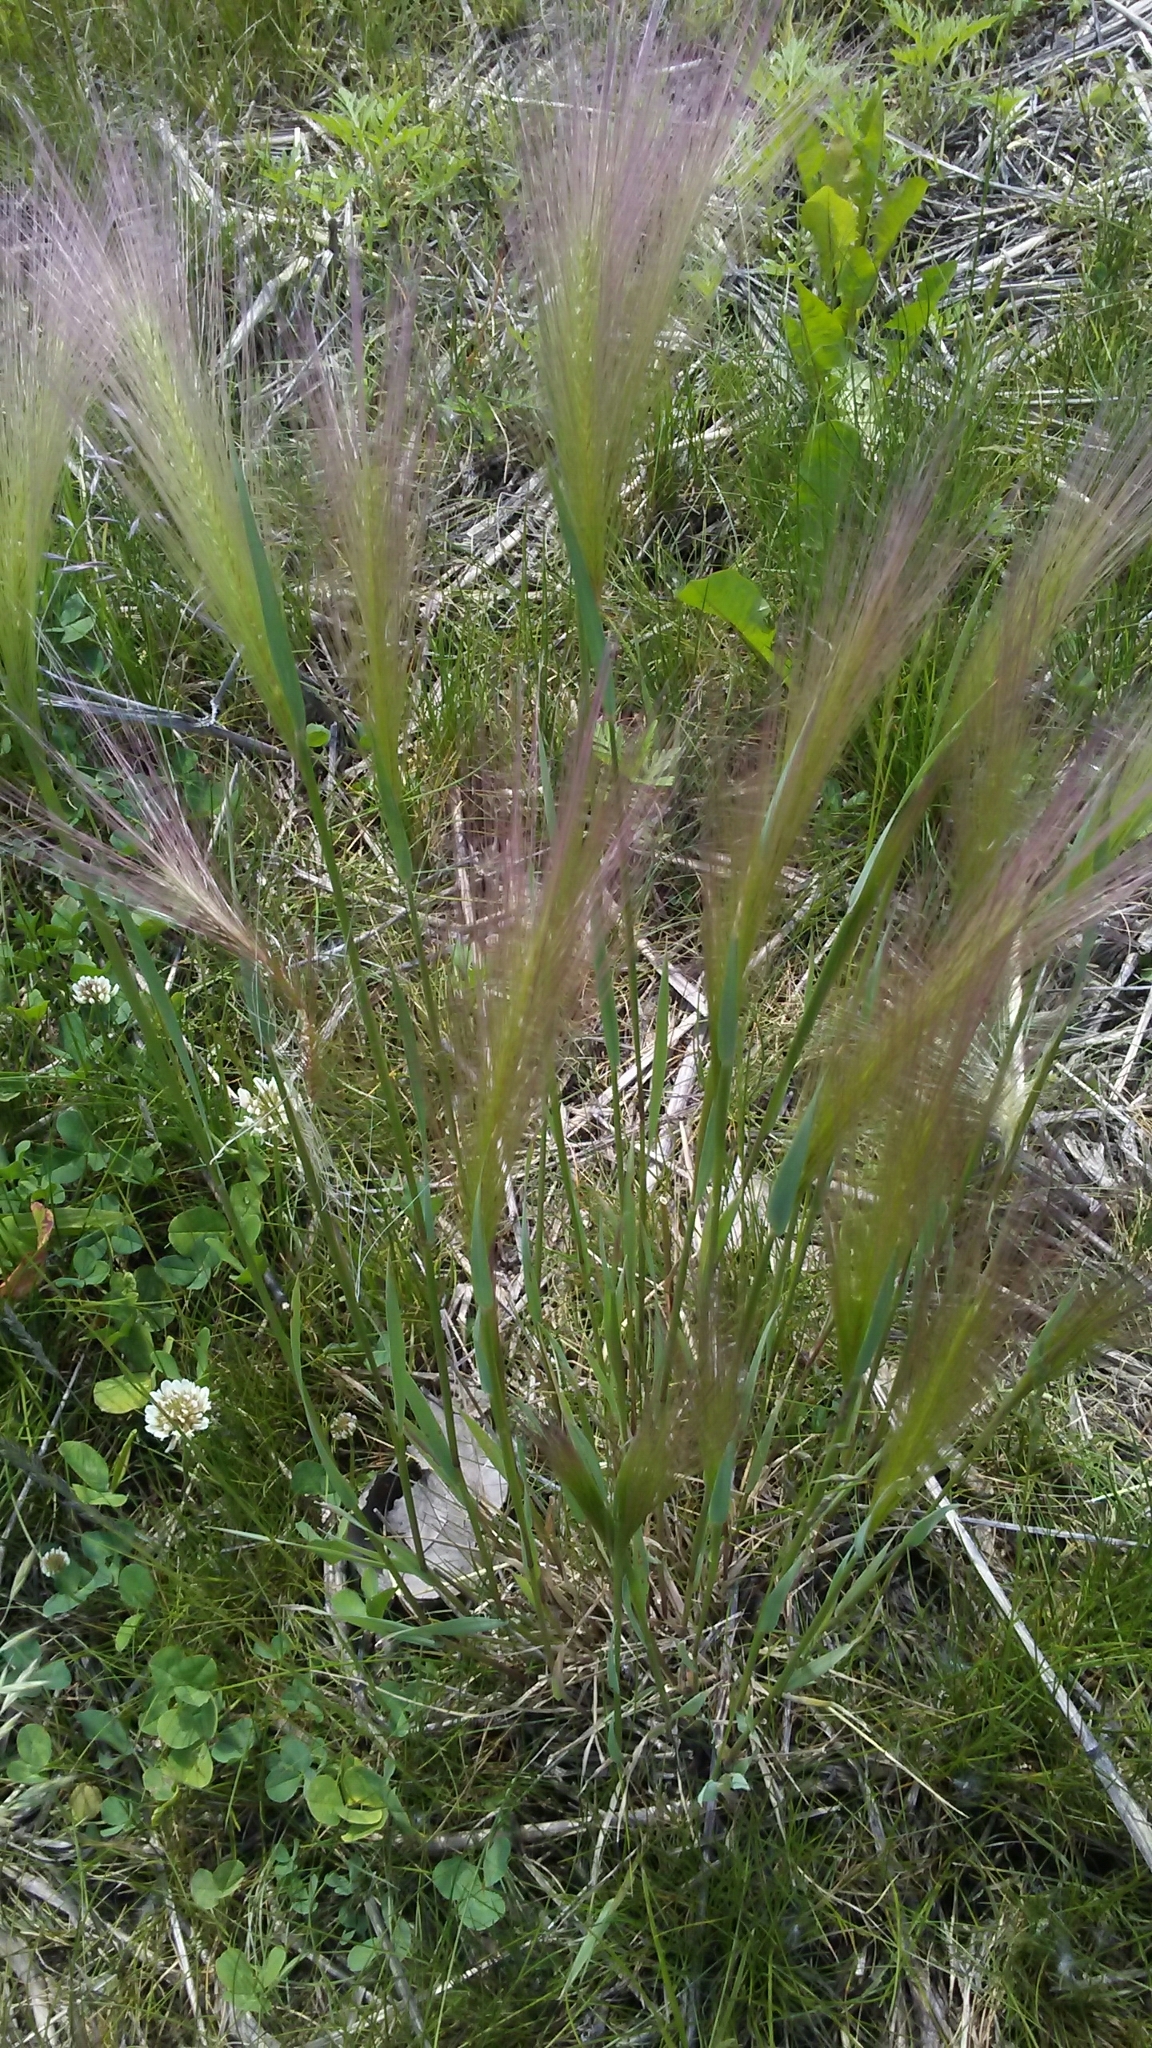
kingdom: Plantae
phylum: Tracheophyta
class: Liliopsida
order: Poales
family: Poaceae
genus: Hordeum
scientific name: Hordeum jubatum
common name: Foxtail barley
